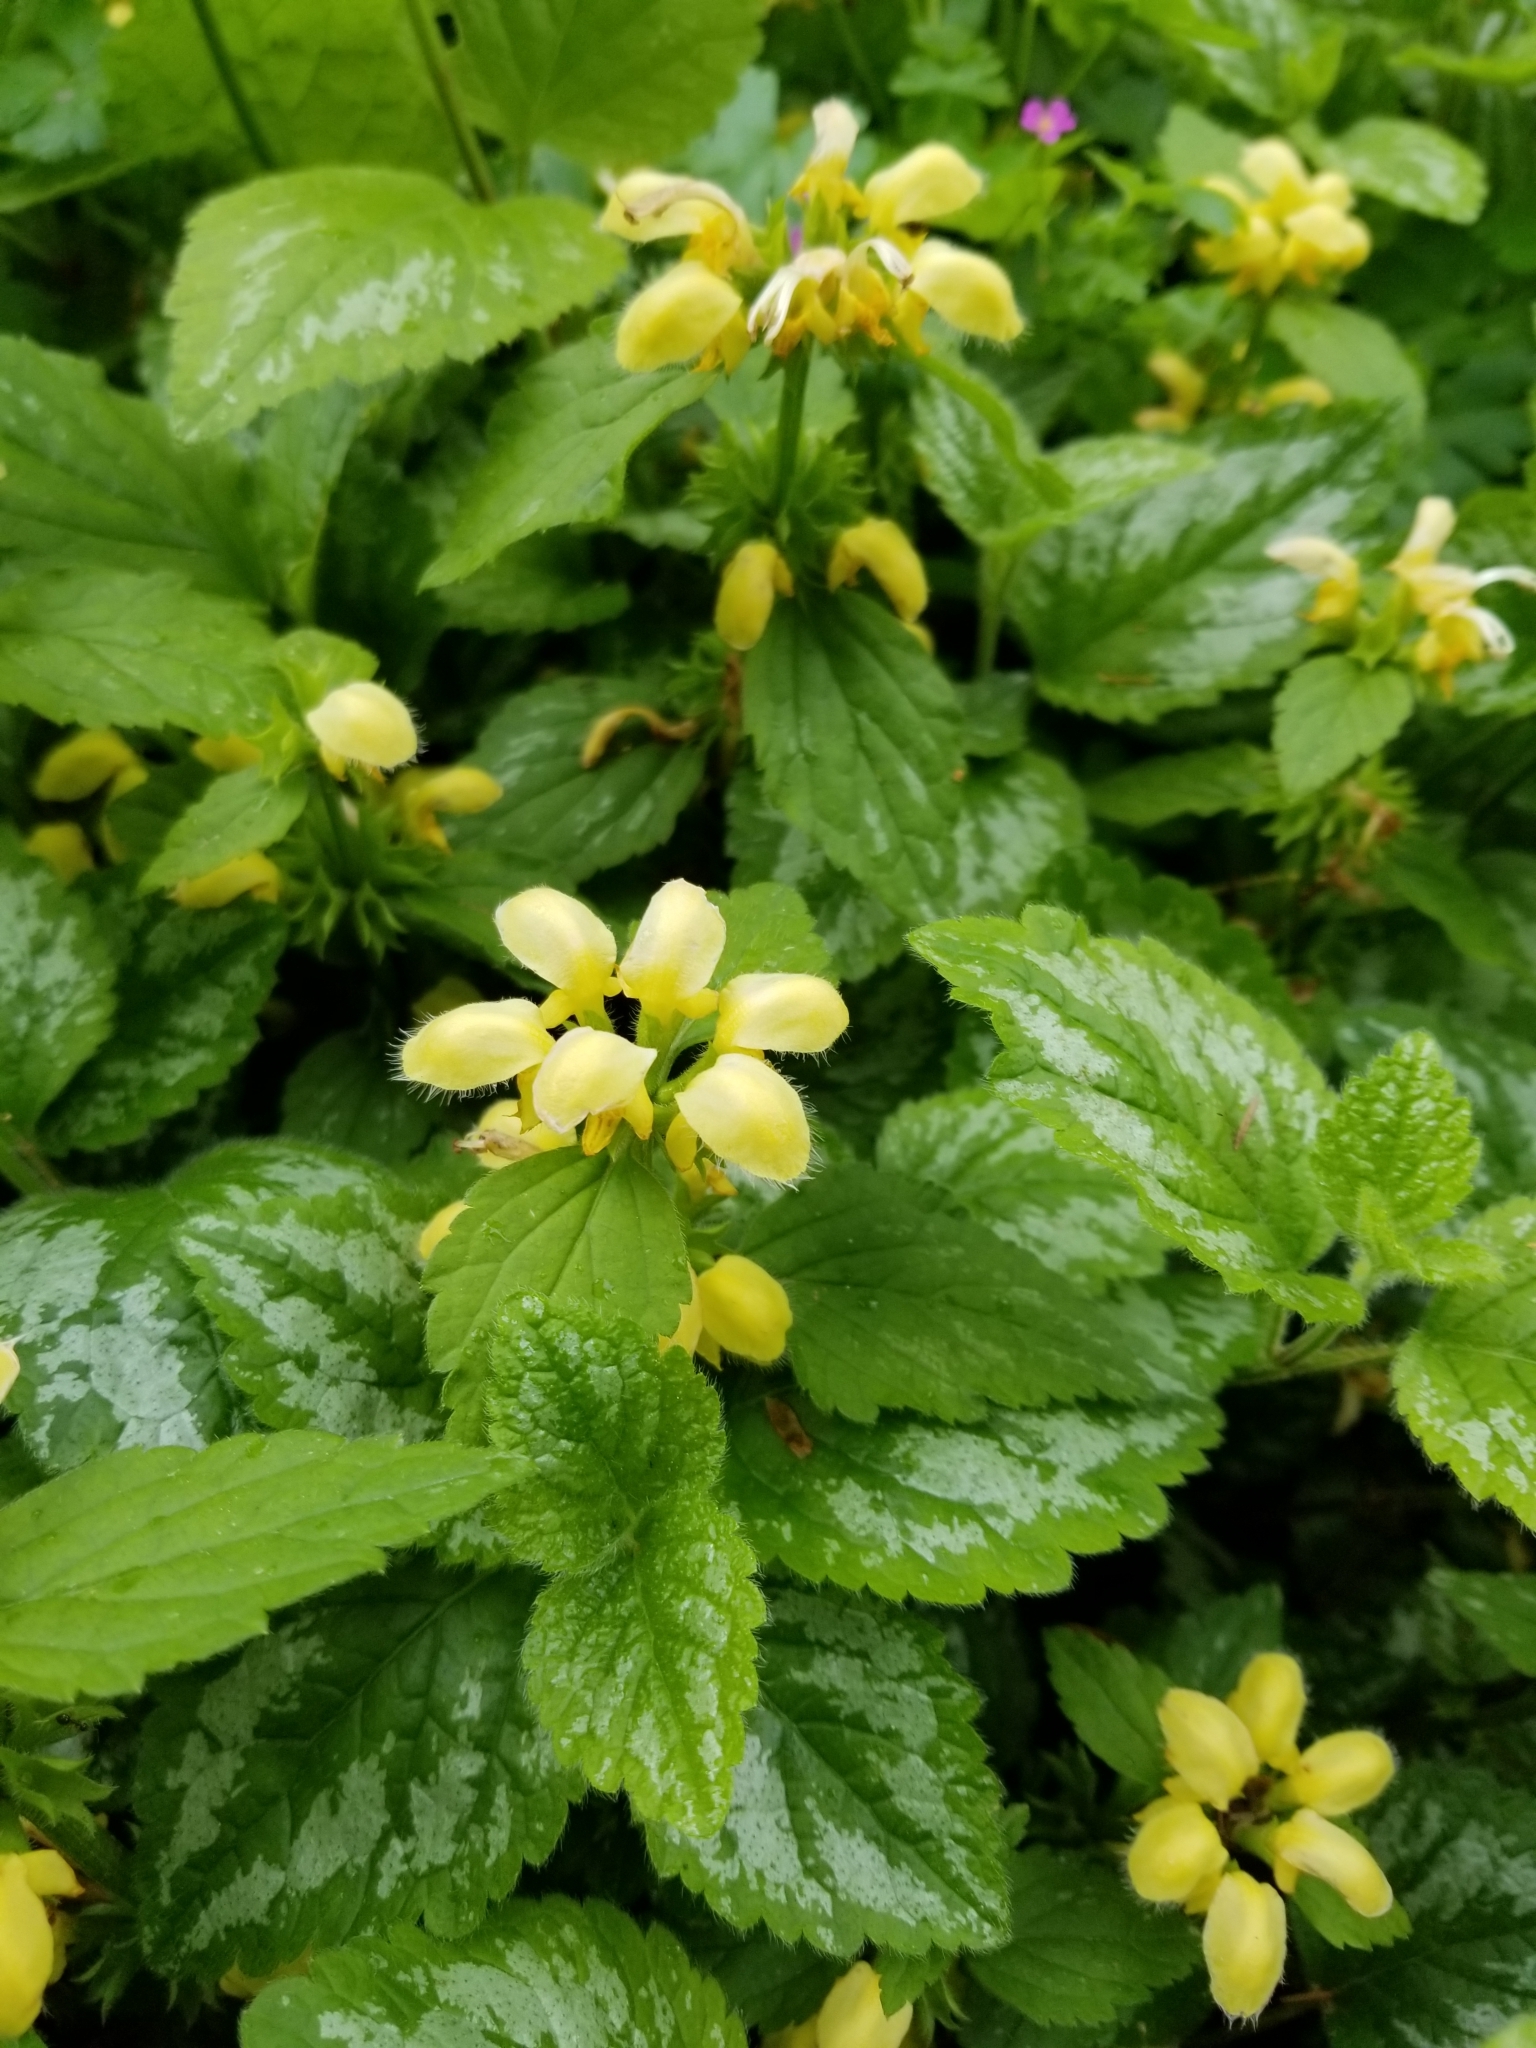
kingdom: Plantae
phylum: Tracheophyta
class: Magnoliopsida
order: Lamiales
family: Lamiaceae
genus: Lamium
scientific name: Lamium galeobdolon
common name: Yellow archangel
